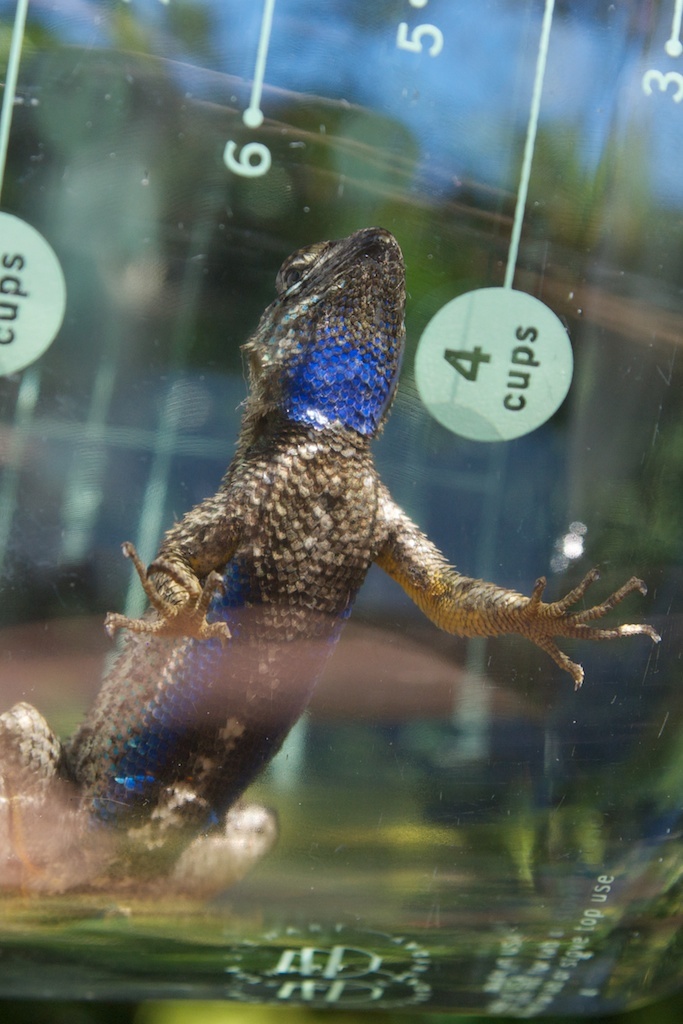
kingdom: Animalia
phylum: Chordata
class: Squamata
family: Phrynosomatidae
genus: Sceloporus
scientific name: Sceloporus occidentalis
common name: Western fence lizard
